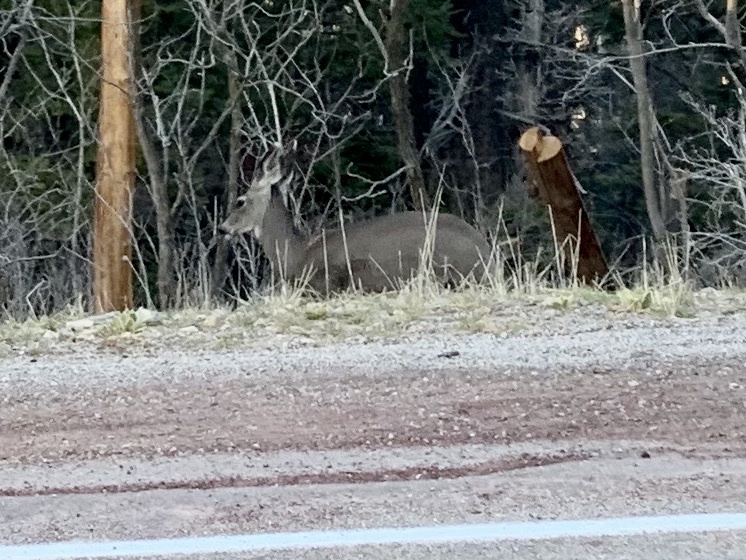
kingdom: Animalia
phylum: Chordata
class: Mammalia
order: Artiodactyla
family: Cervidae
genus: Odocoileus
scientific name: Odocoileus hemionus
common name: Mule deer
